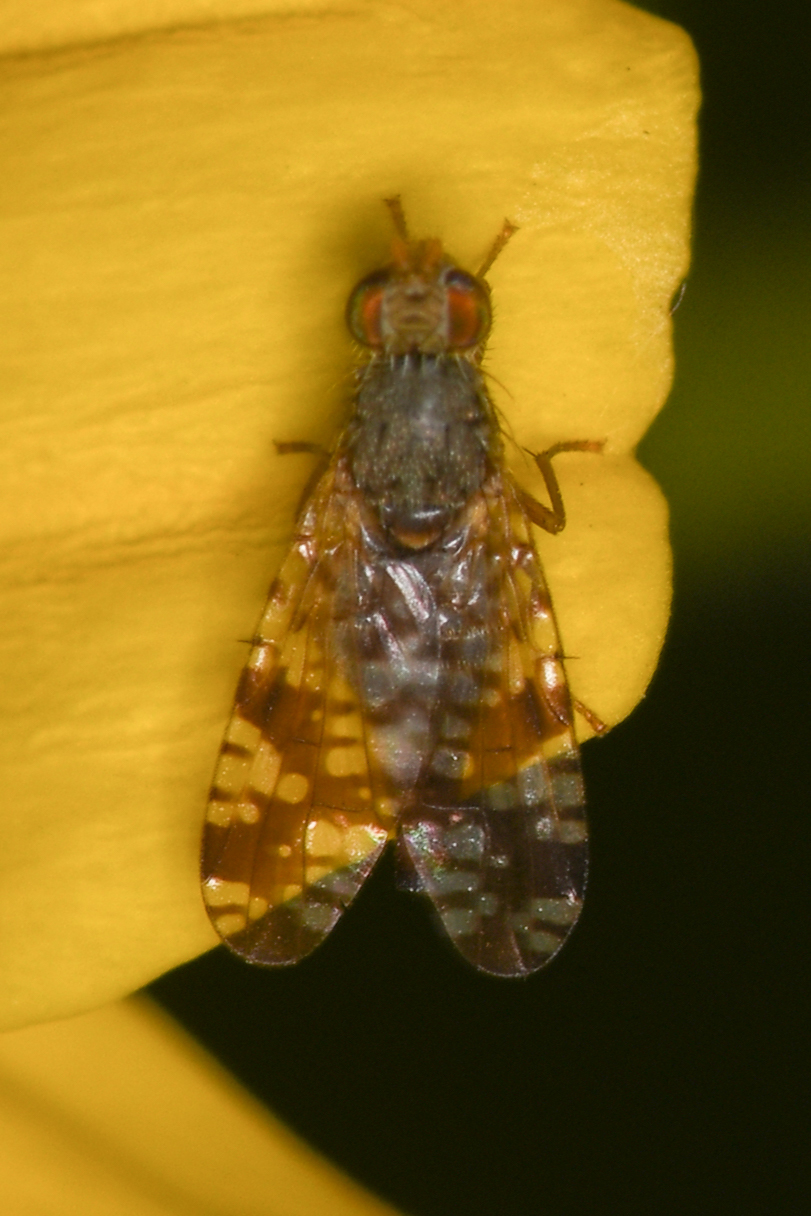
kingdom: Animalia
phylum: Arthropoda
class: Insecta
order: Diptera
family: Tephritidae
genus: Neotephritis
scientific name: Neotephritis finalis
